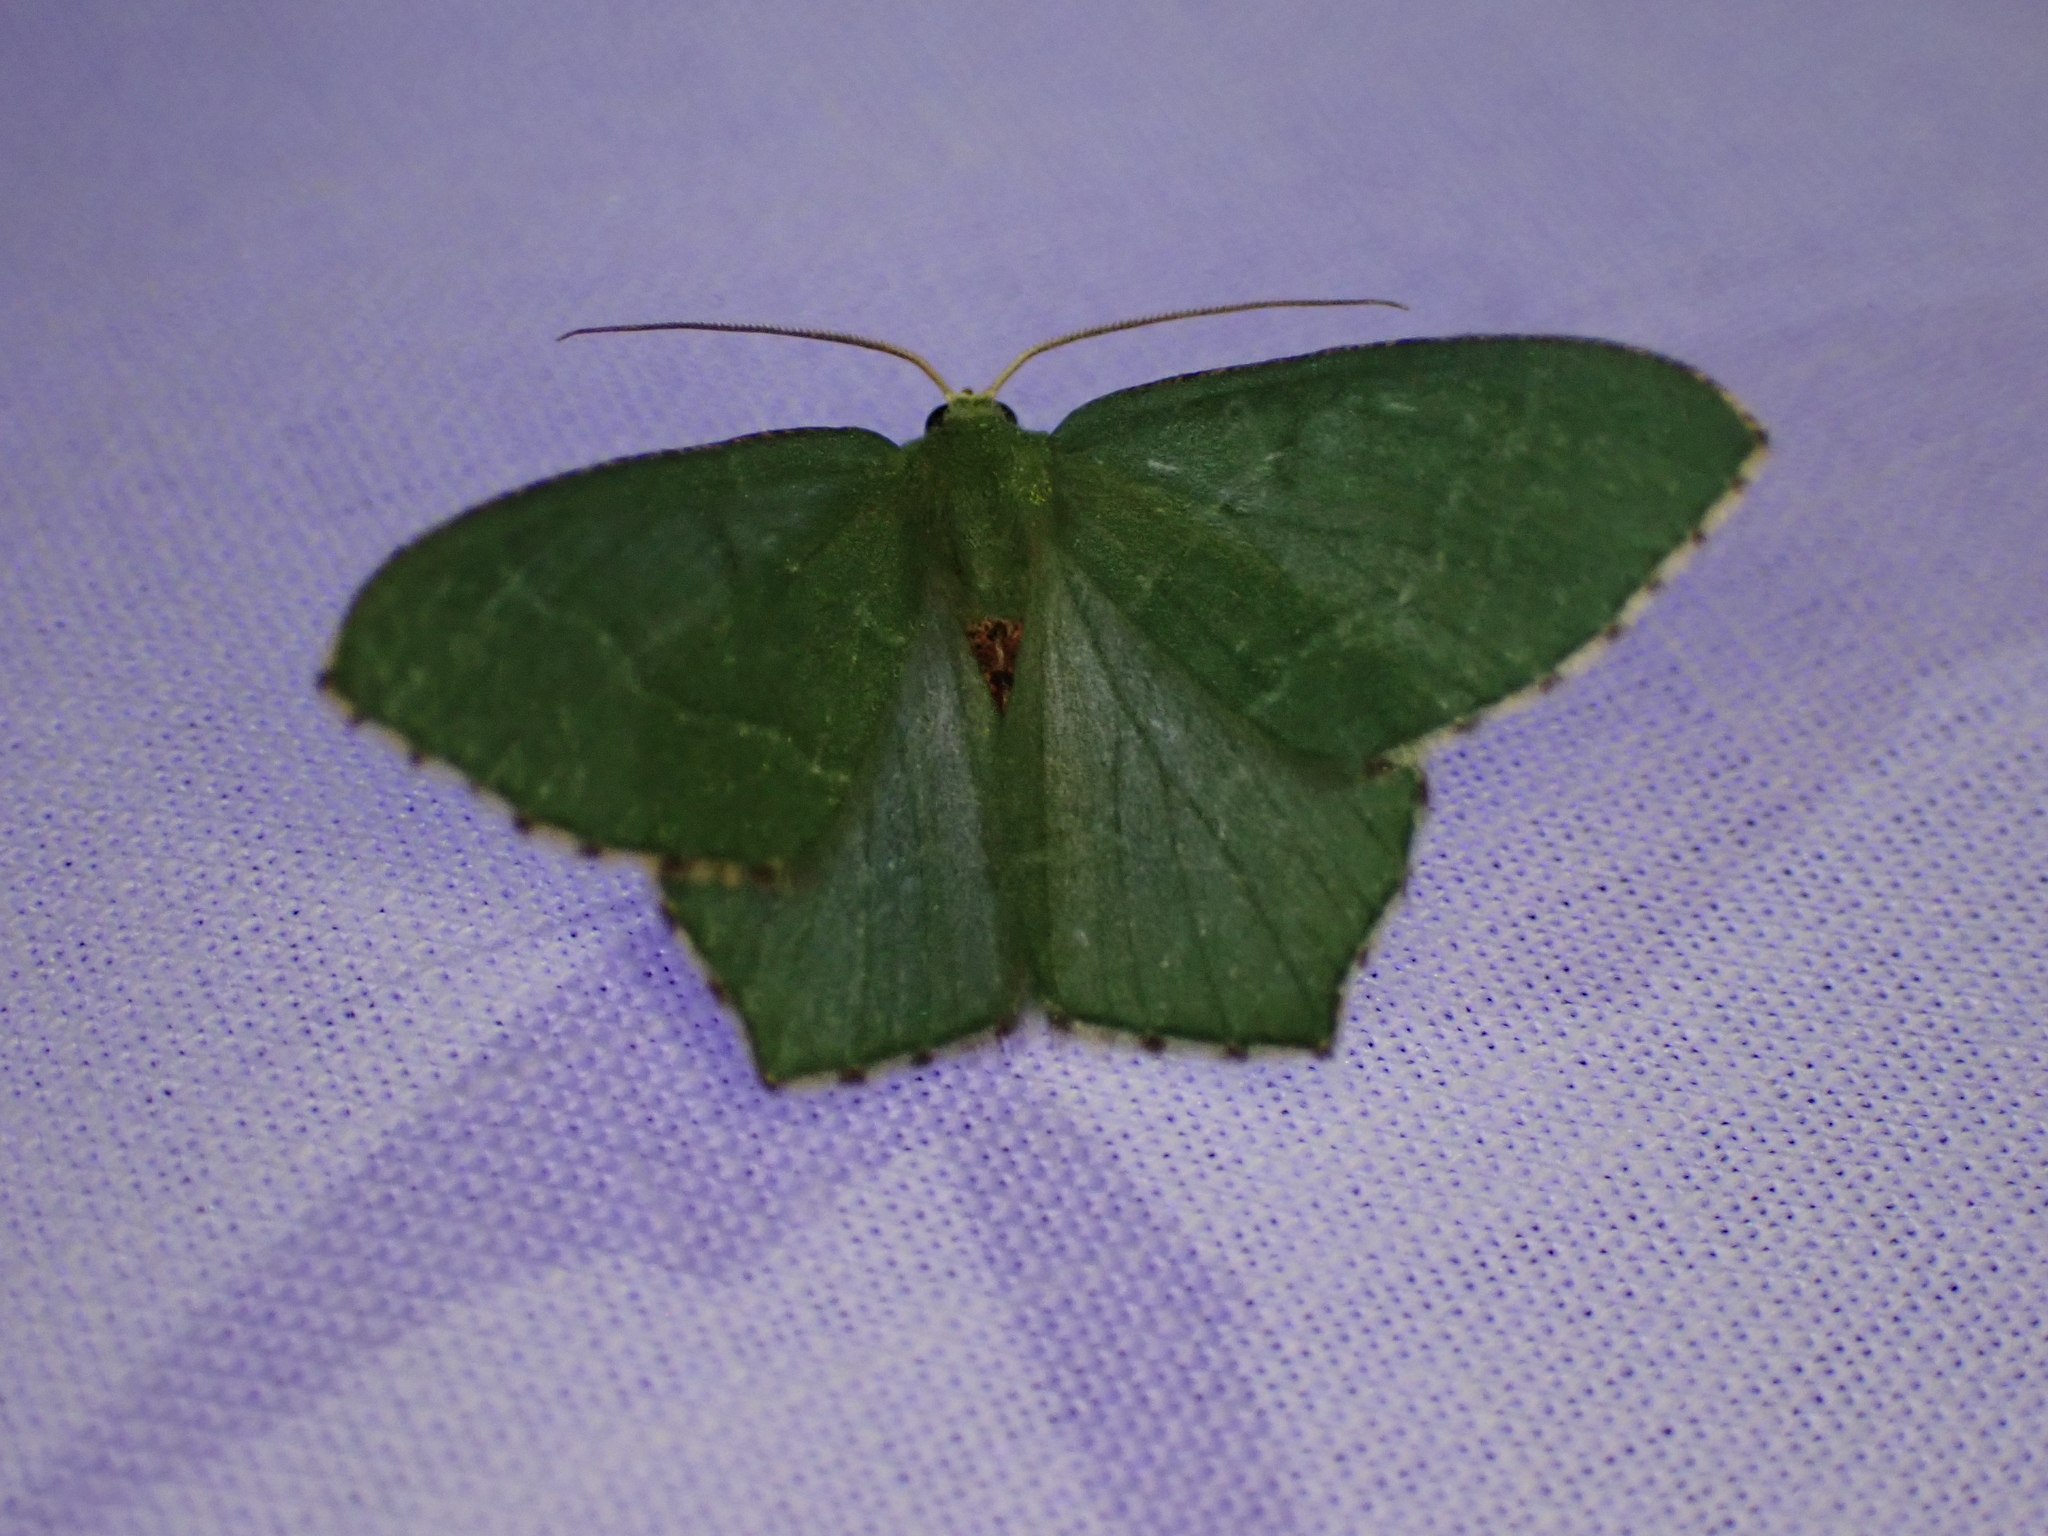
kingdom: Animalia
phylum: Arthropoda
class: Insecta
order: Lepidoptera
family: Geometridae
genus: Hemithea
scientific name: Hemithea aestivaria
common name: Common emerald
